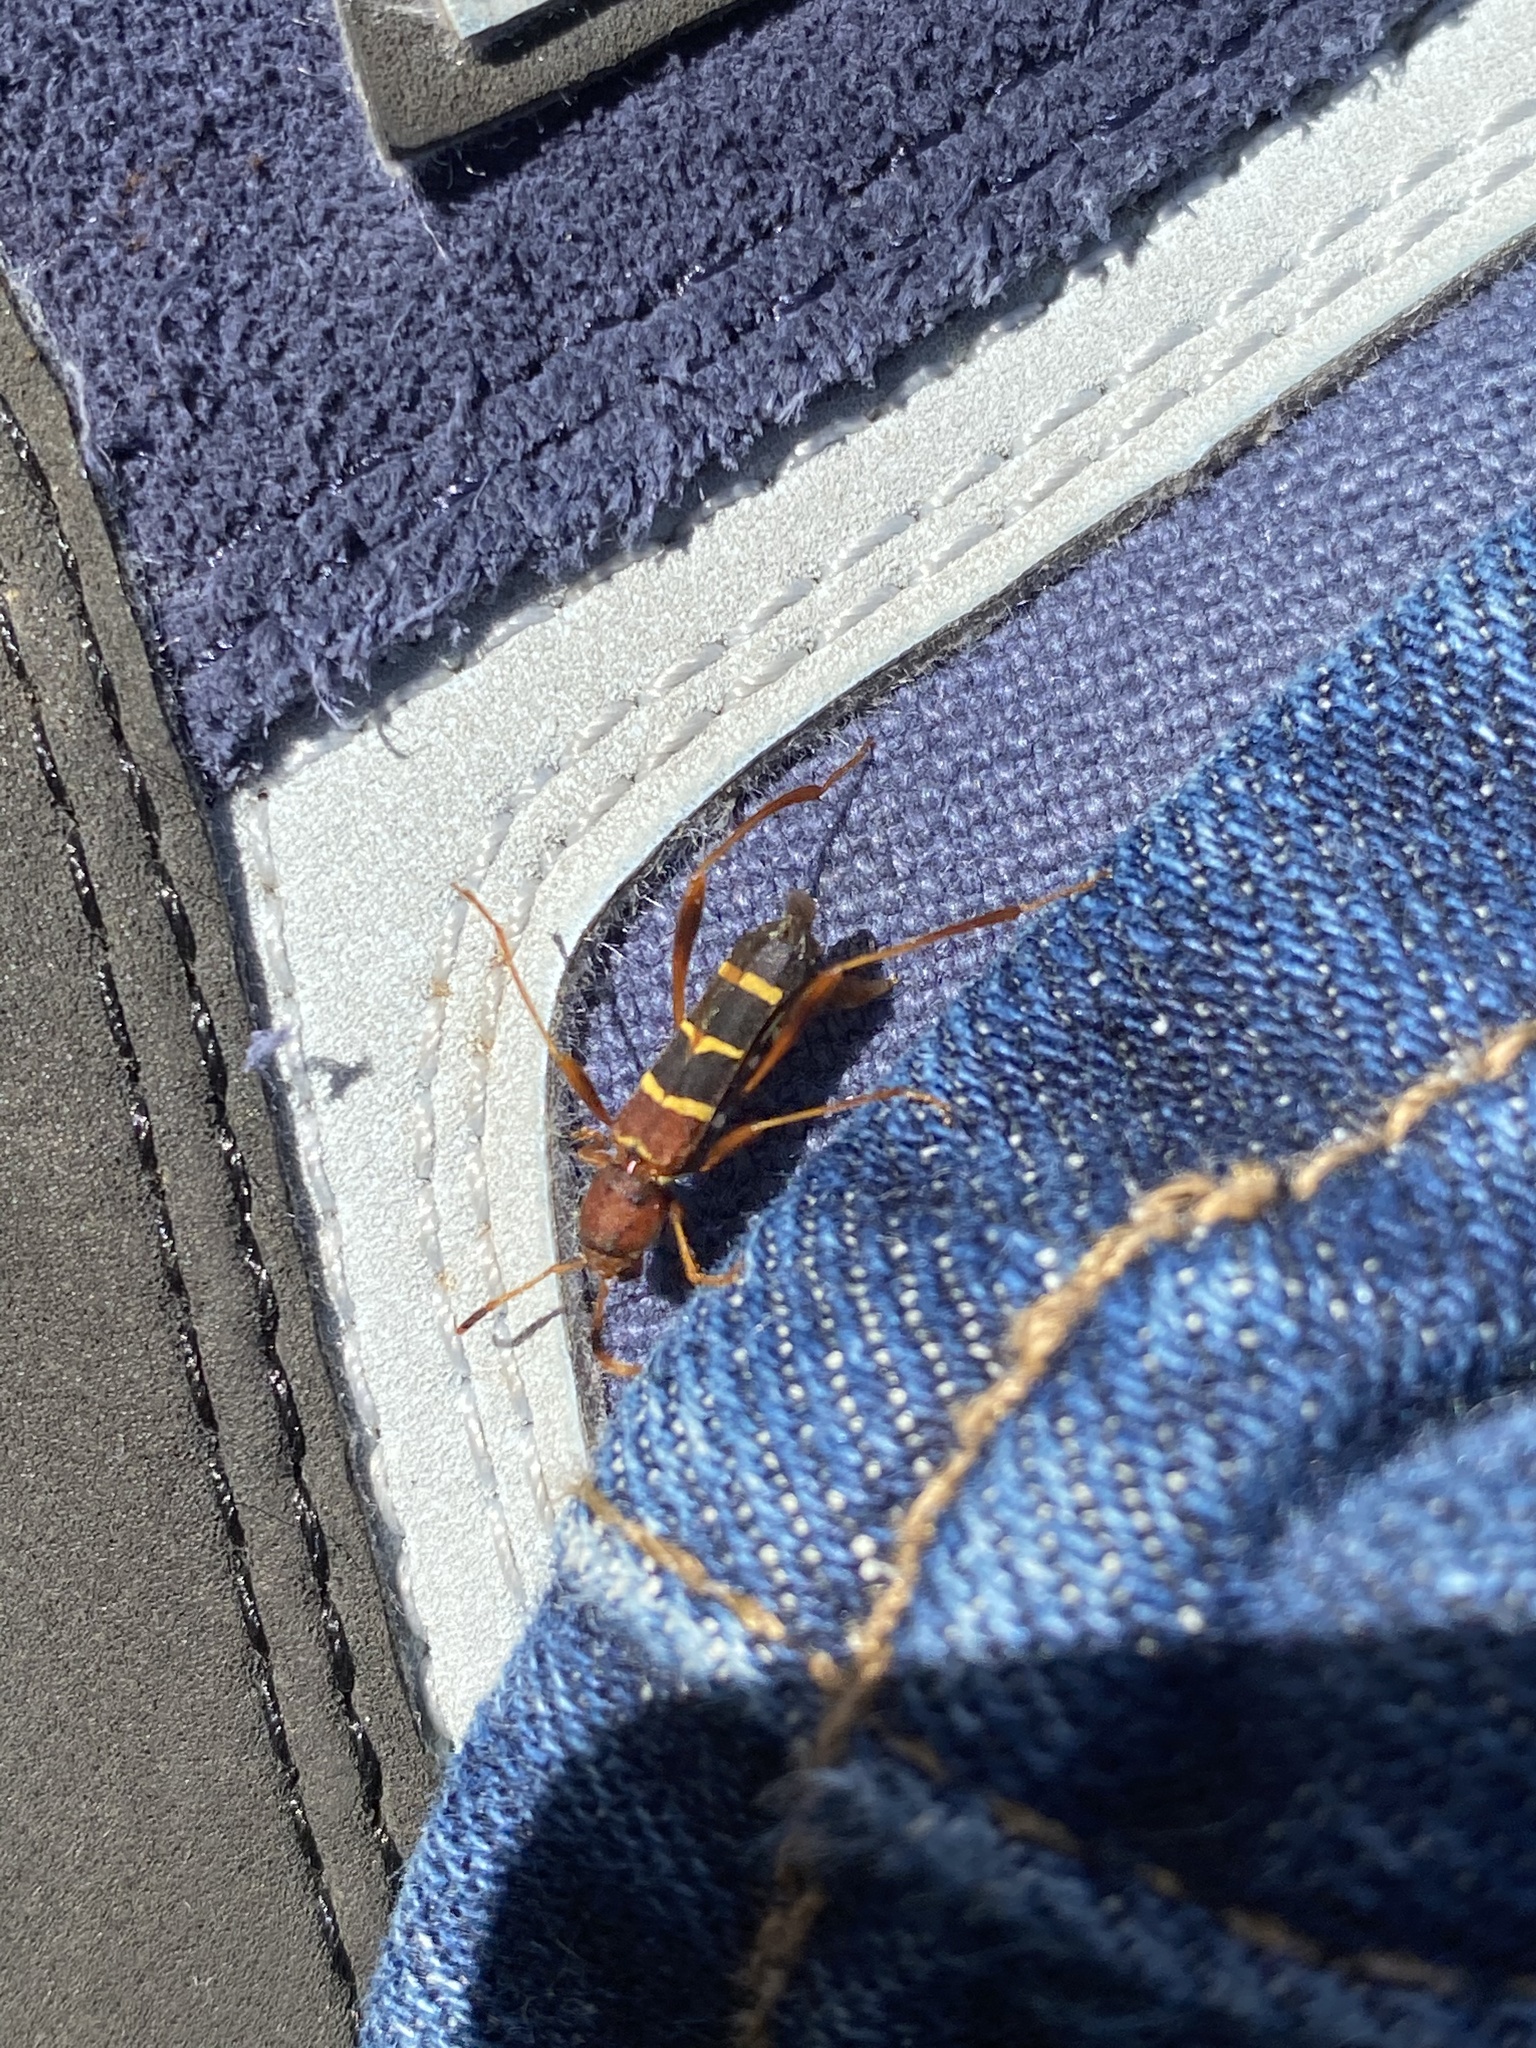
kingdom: Animalia
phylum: Arthropoda
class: Insecta
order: Coleoptera
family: Cerambycidae
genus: Neoclytus
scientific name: Neoclytus acuminatus
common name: Read-headed ash borer
